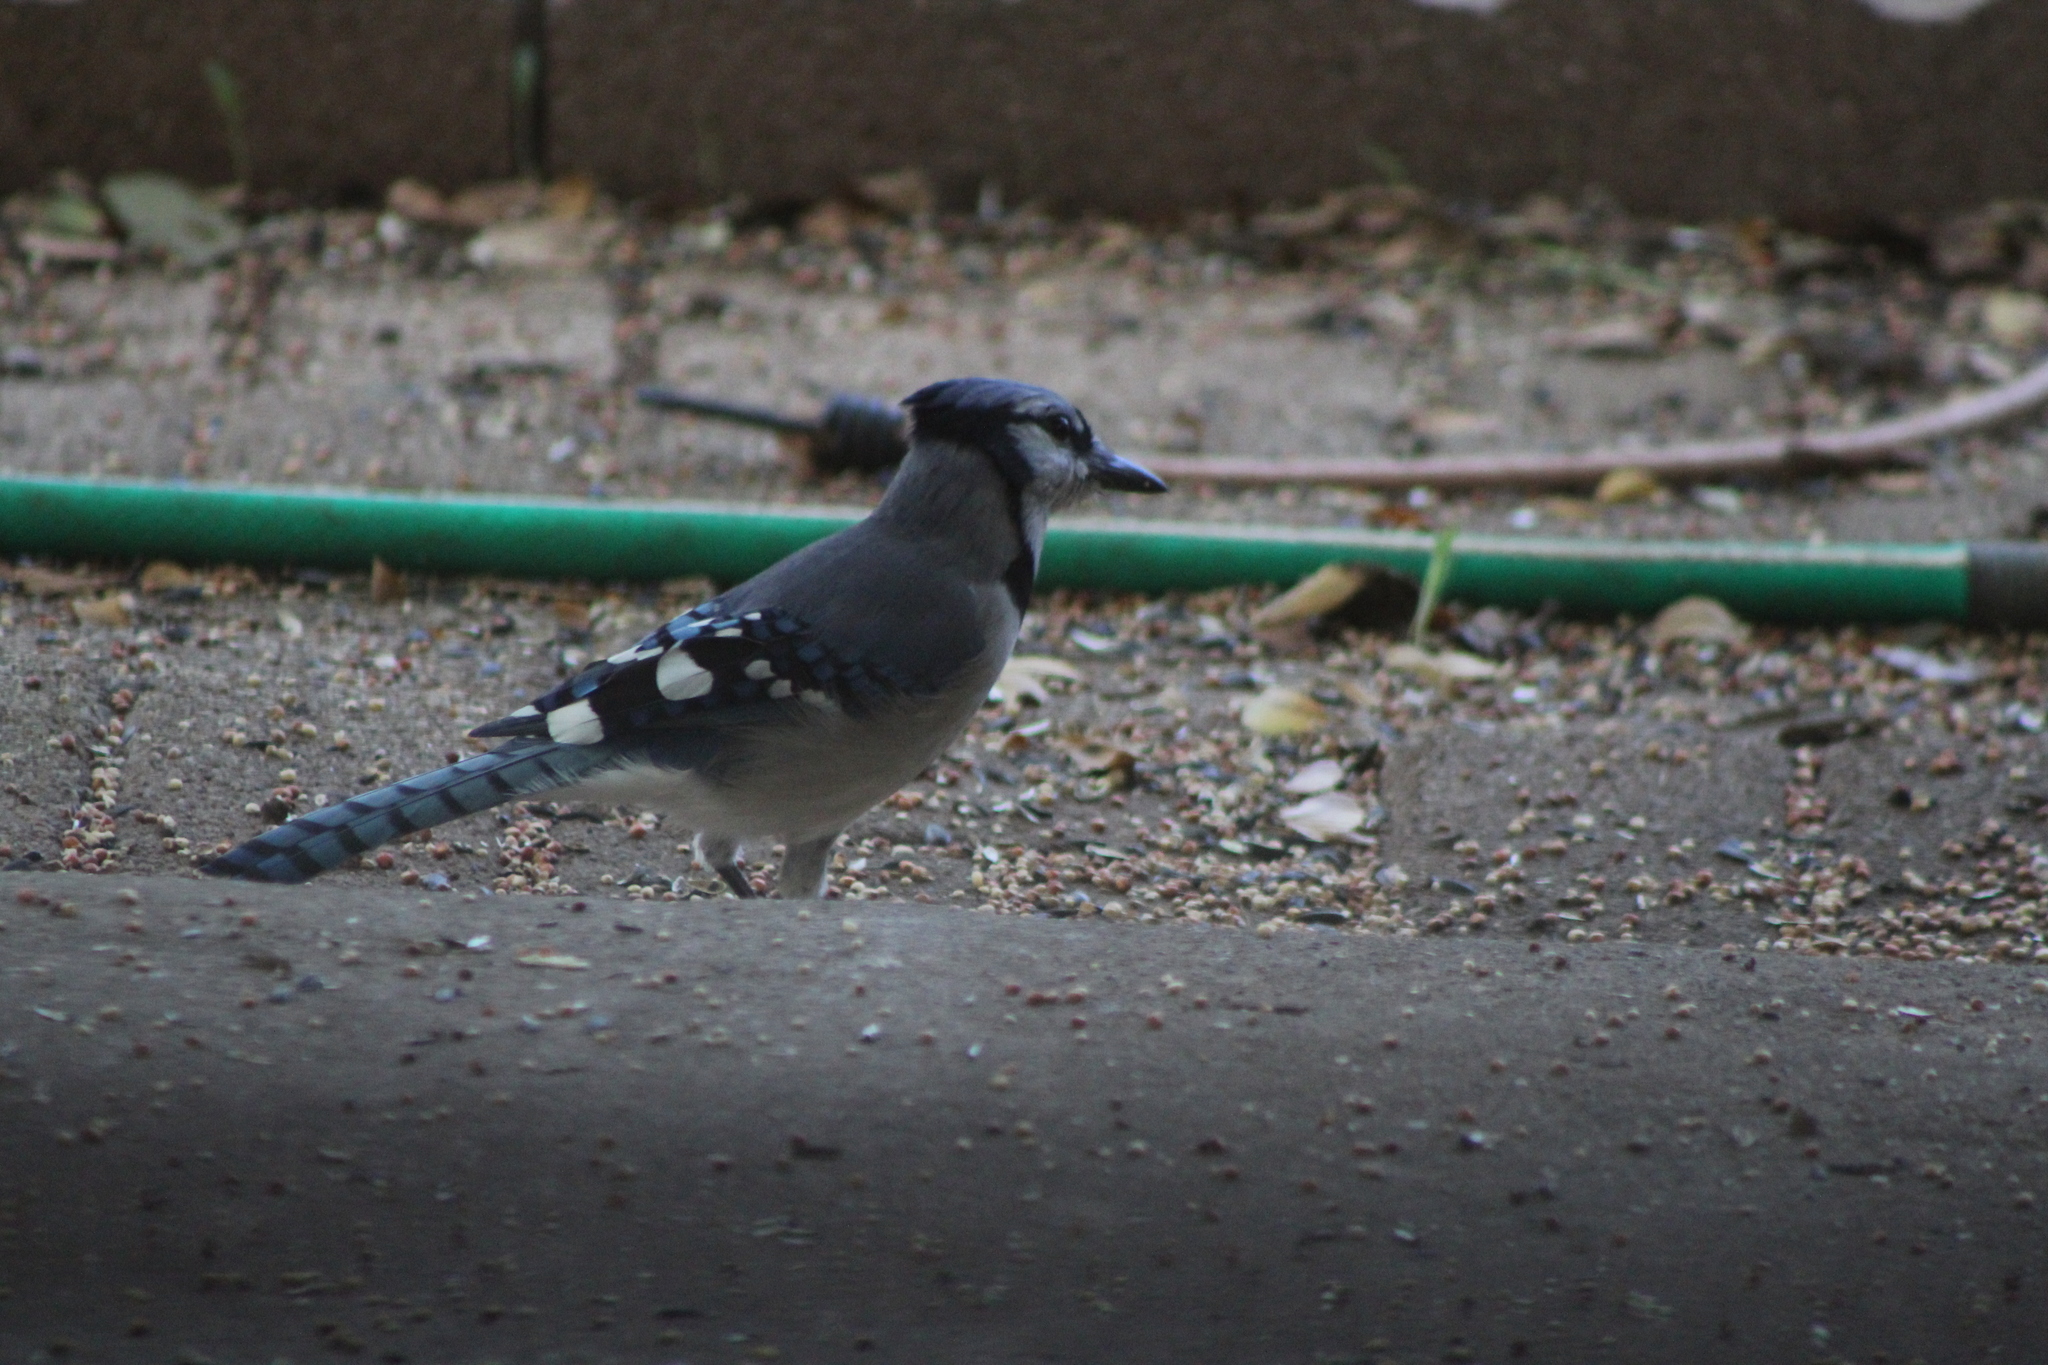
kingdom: Animalia
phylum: Chordata
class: Aves
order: Passeriformes
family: Corvidae
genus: Cyanocitta
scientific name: Cyanocitta cristata
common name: Blue jay
